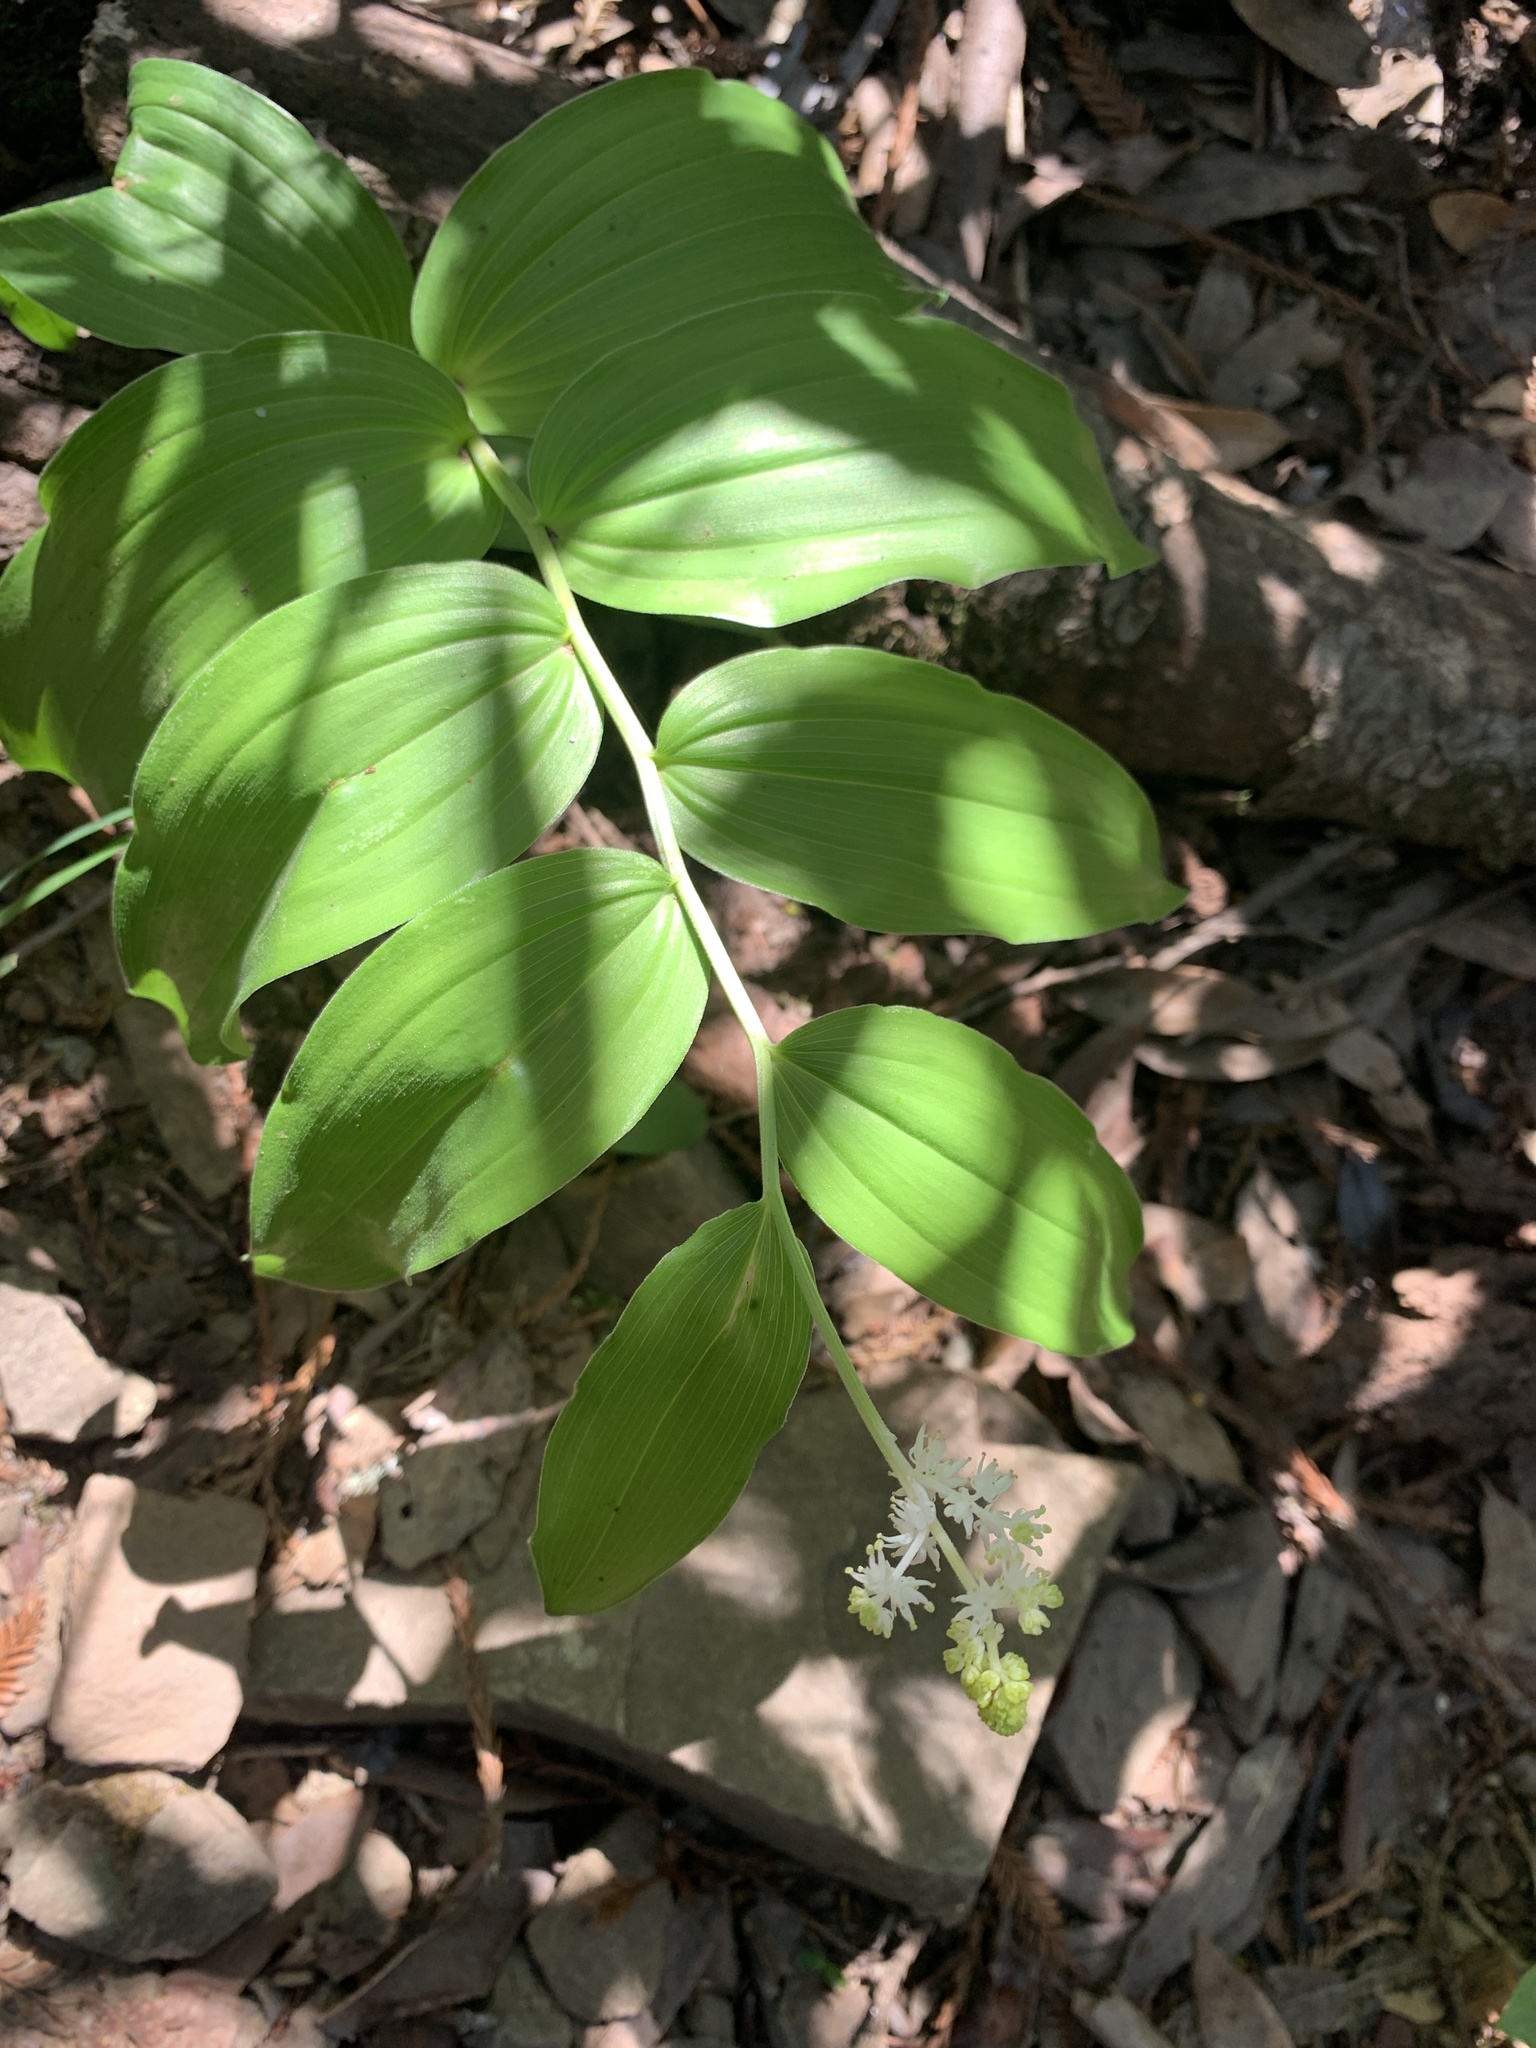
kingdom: Plantae
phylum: Tracheophyta
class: Liliopsida
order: Asparagales
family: Asparagaceae
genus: Maianthemum
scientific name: Maianthemum racemosum
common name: False spikenard
